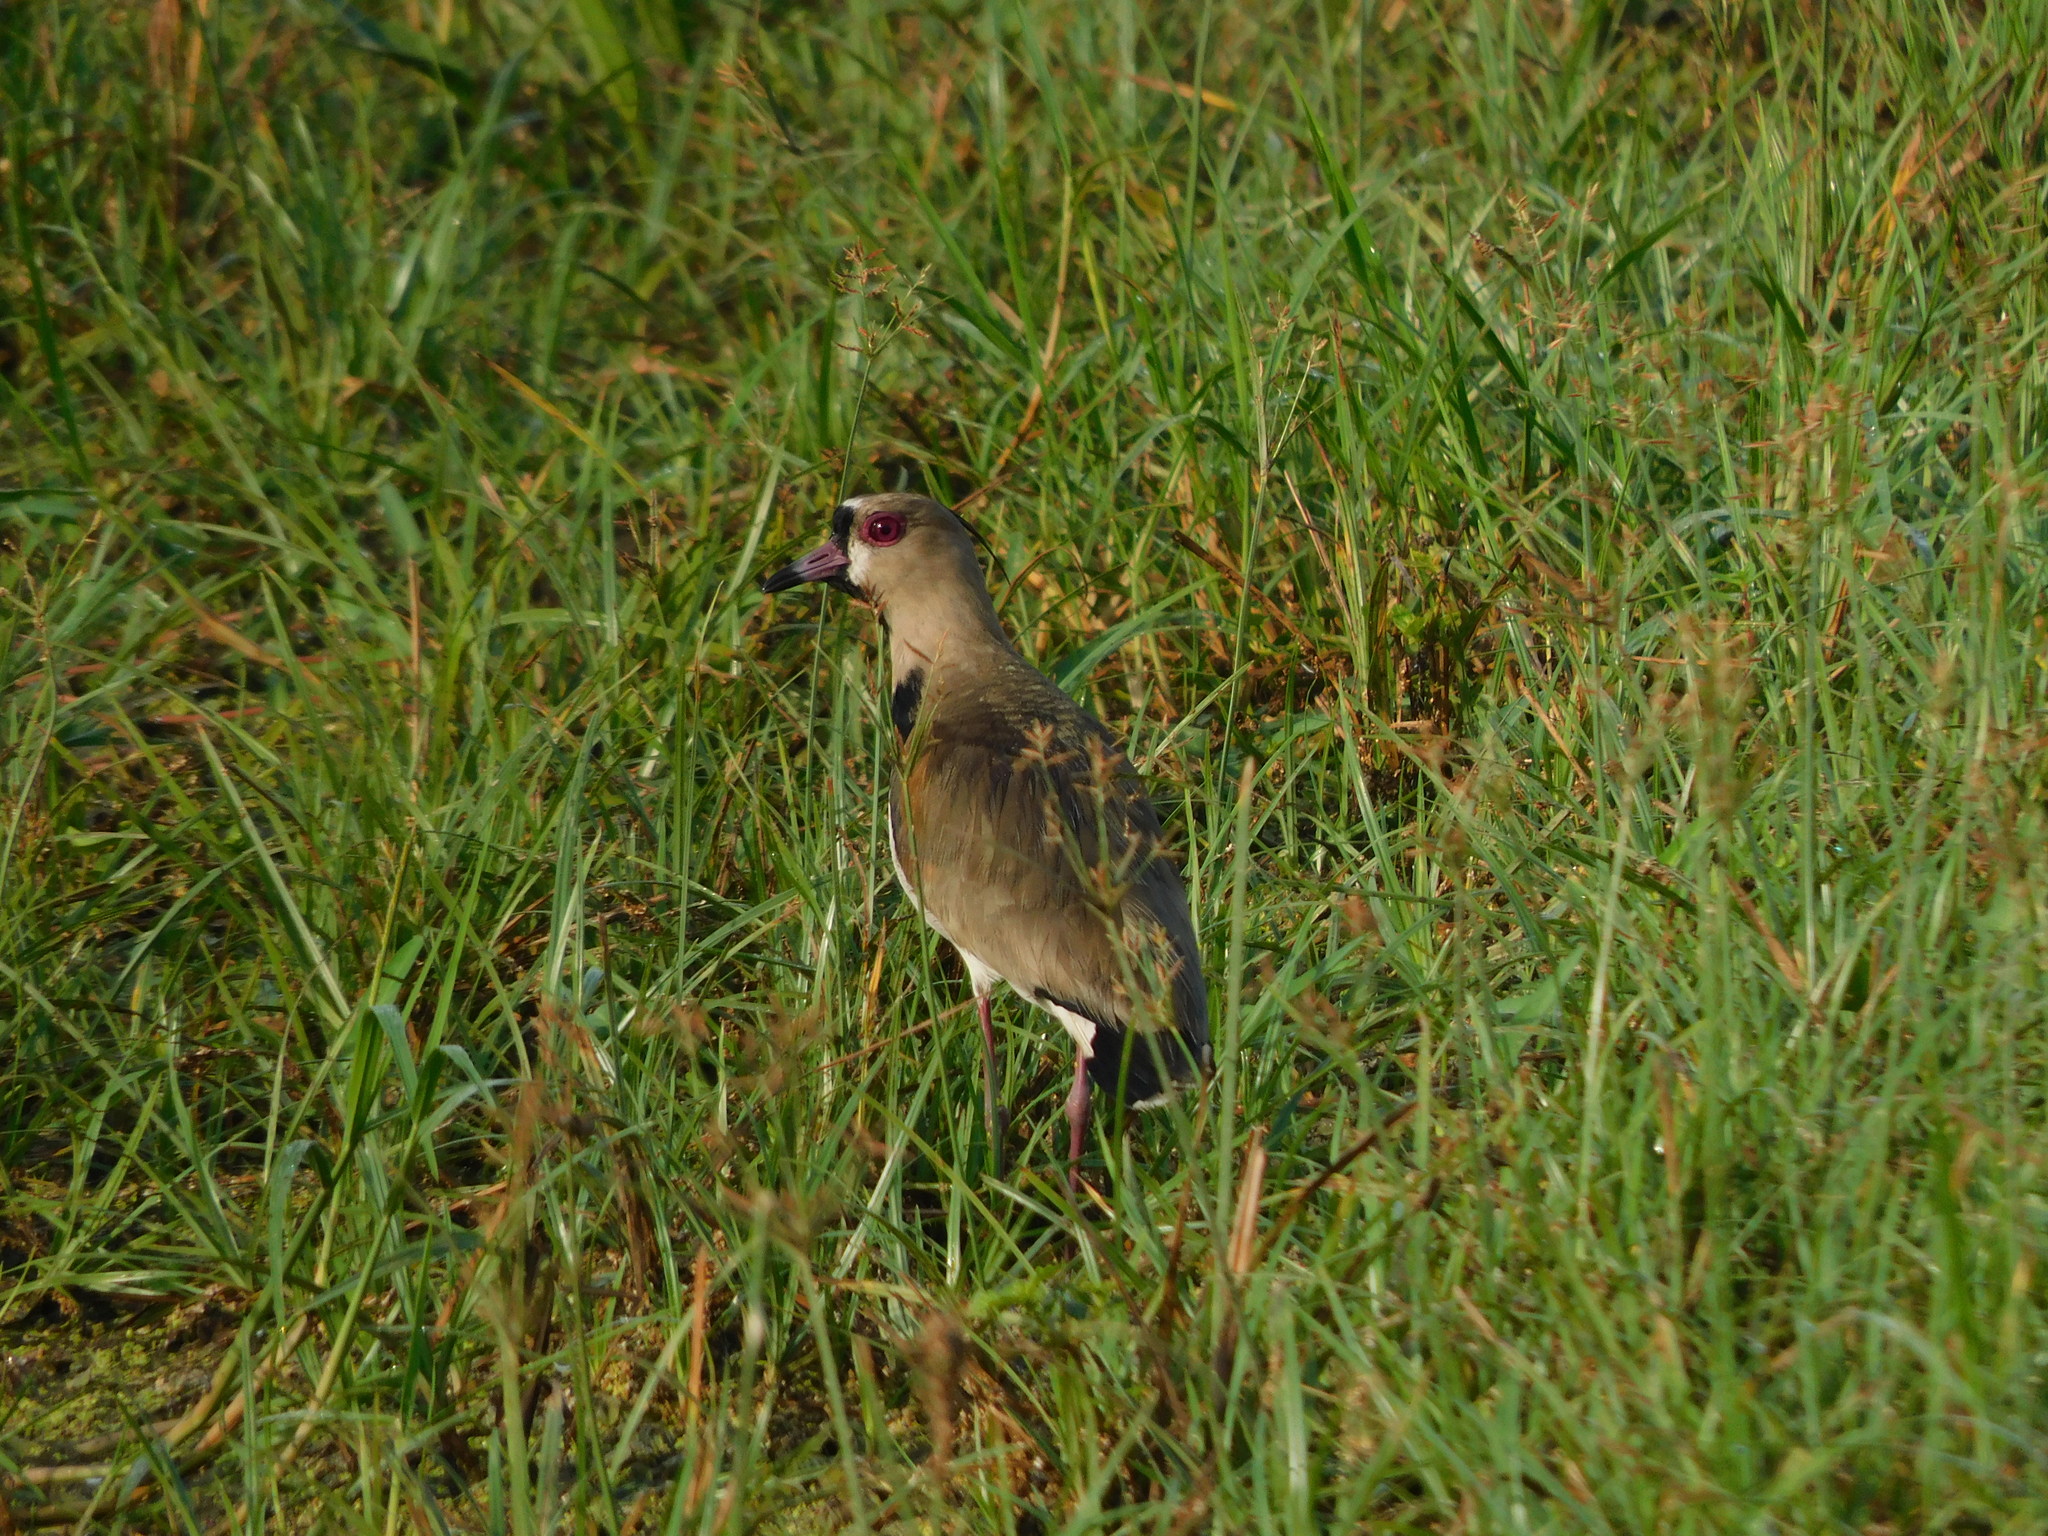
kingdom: Animalia
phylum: Chordata
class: Aves
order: Charadriiformes
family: Charadriidae
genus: Vanellus
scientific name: Vanellus chilensis
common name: Southern lapwing
